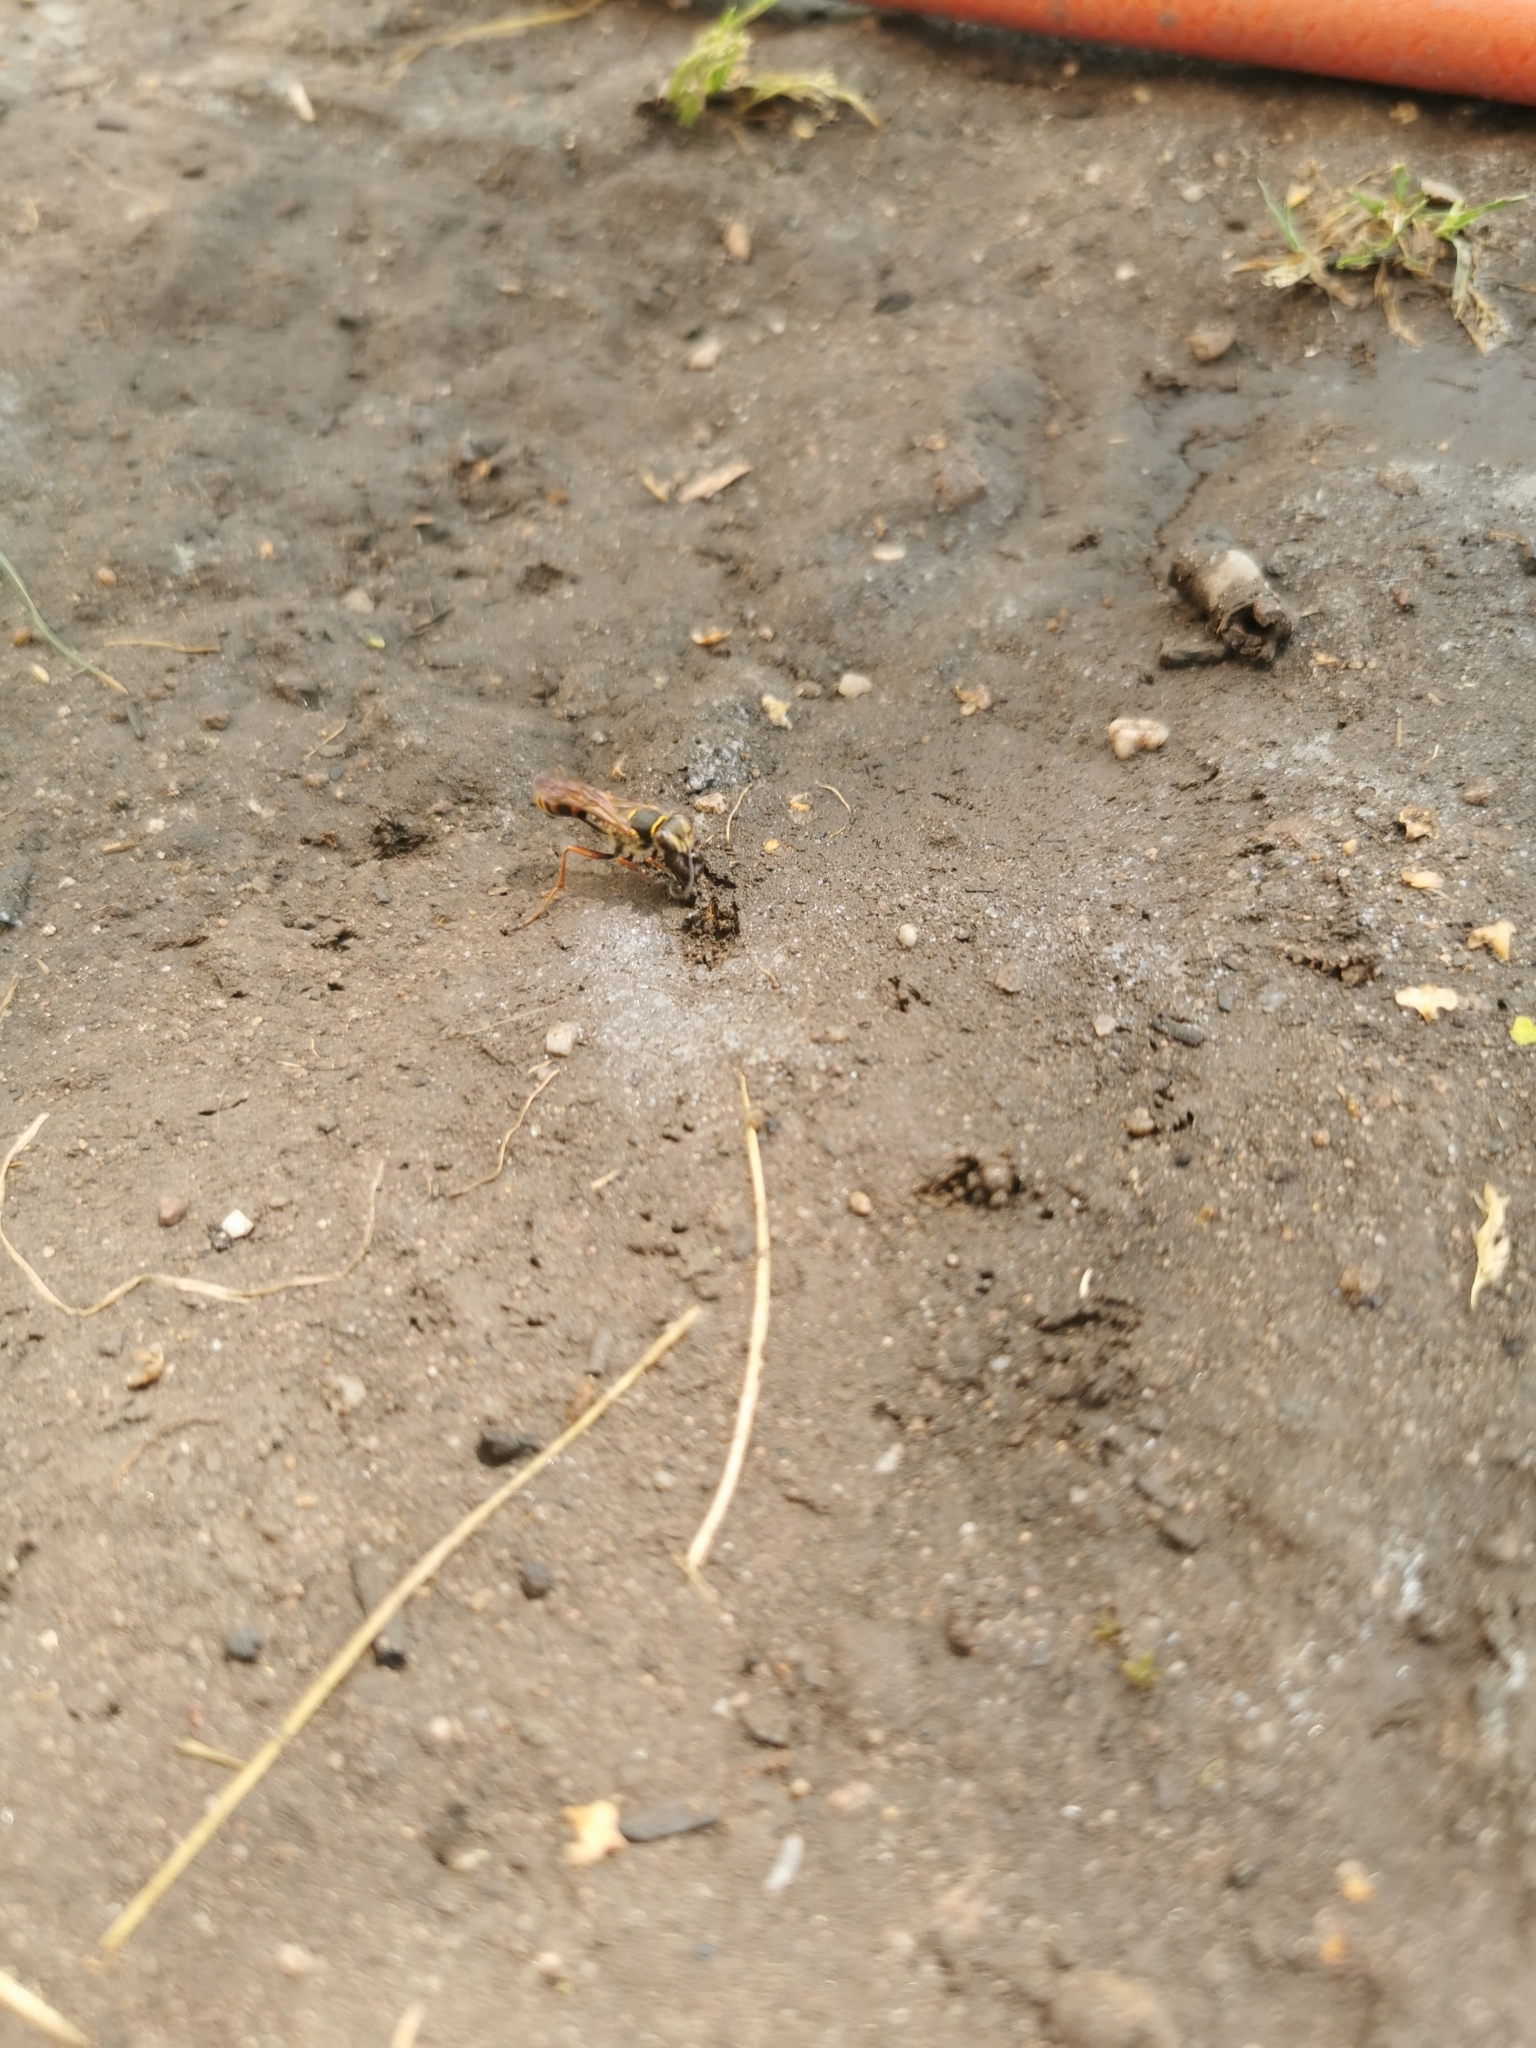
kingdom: Animalia
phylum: Arthropoda
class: Insecta
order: Hymenoptera
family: Sphecidae
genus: Sceliphron
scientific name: Sceliphron curvatum
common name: Pèlopèe
